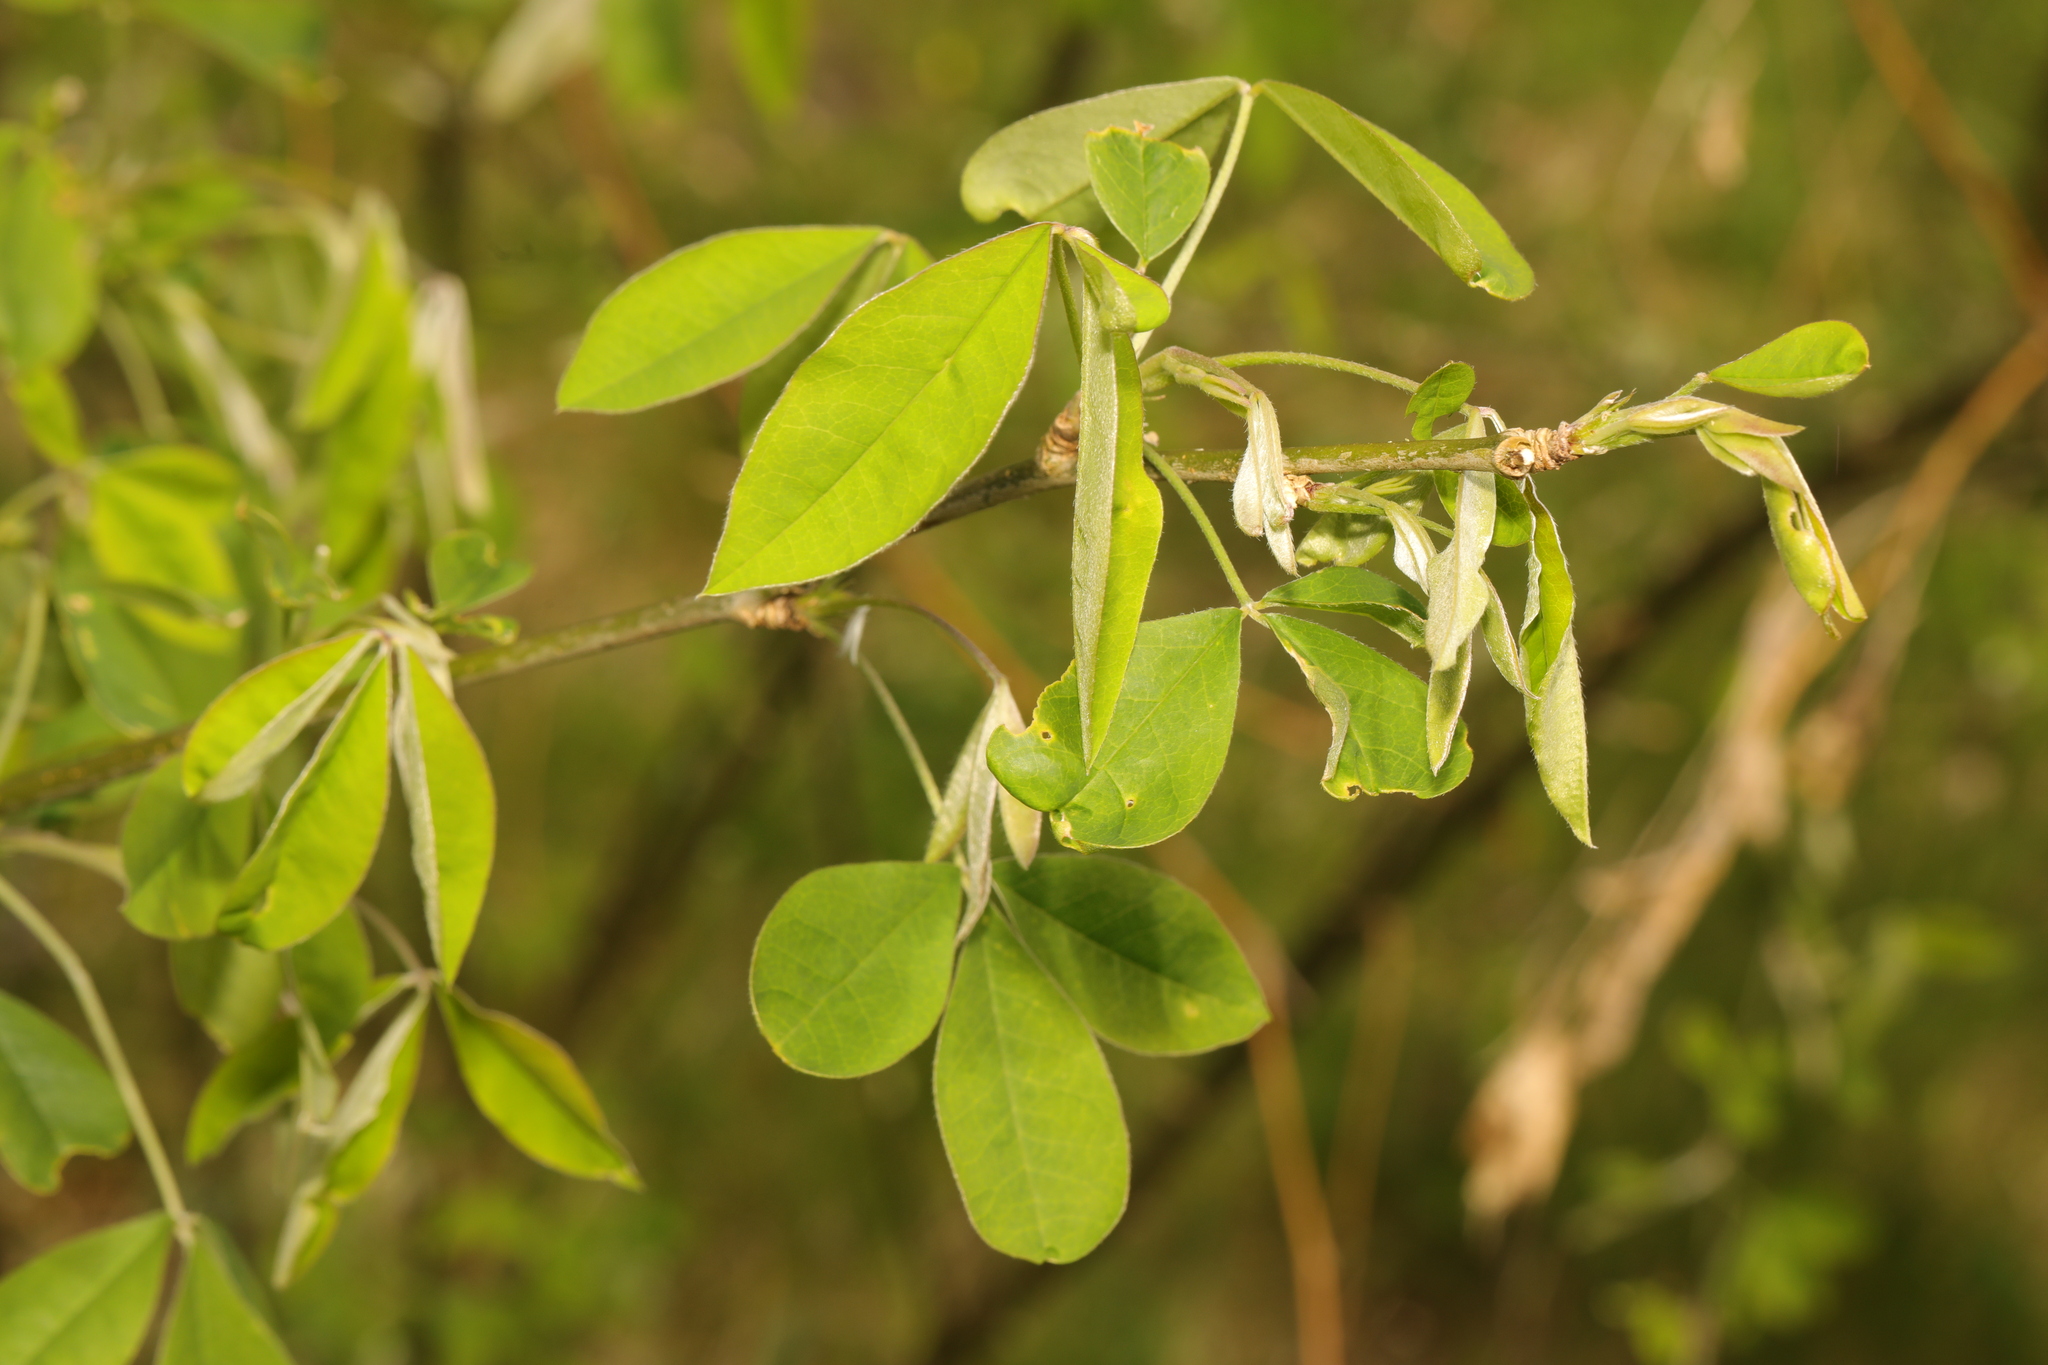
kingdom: Plantae
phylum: Tracheophyta
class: Magnoliopsida
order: Fabales
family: Fabaceae
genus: Laburnum
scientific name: Laburnum anagyroides
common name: Laburnum
